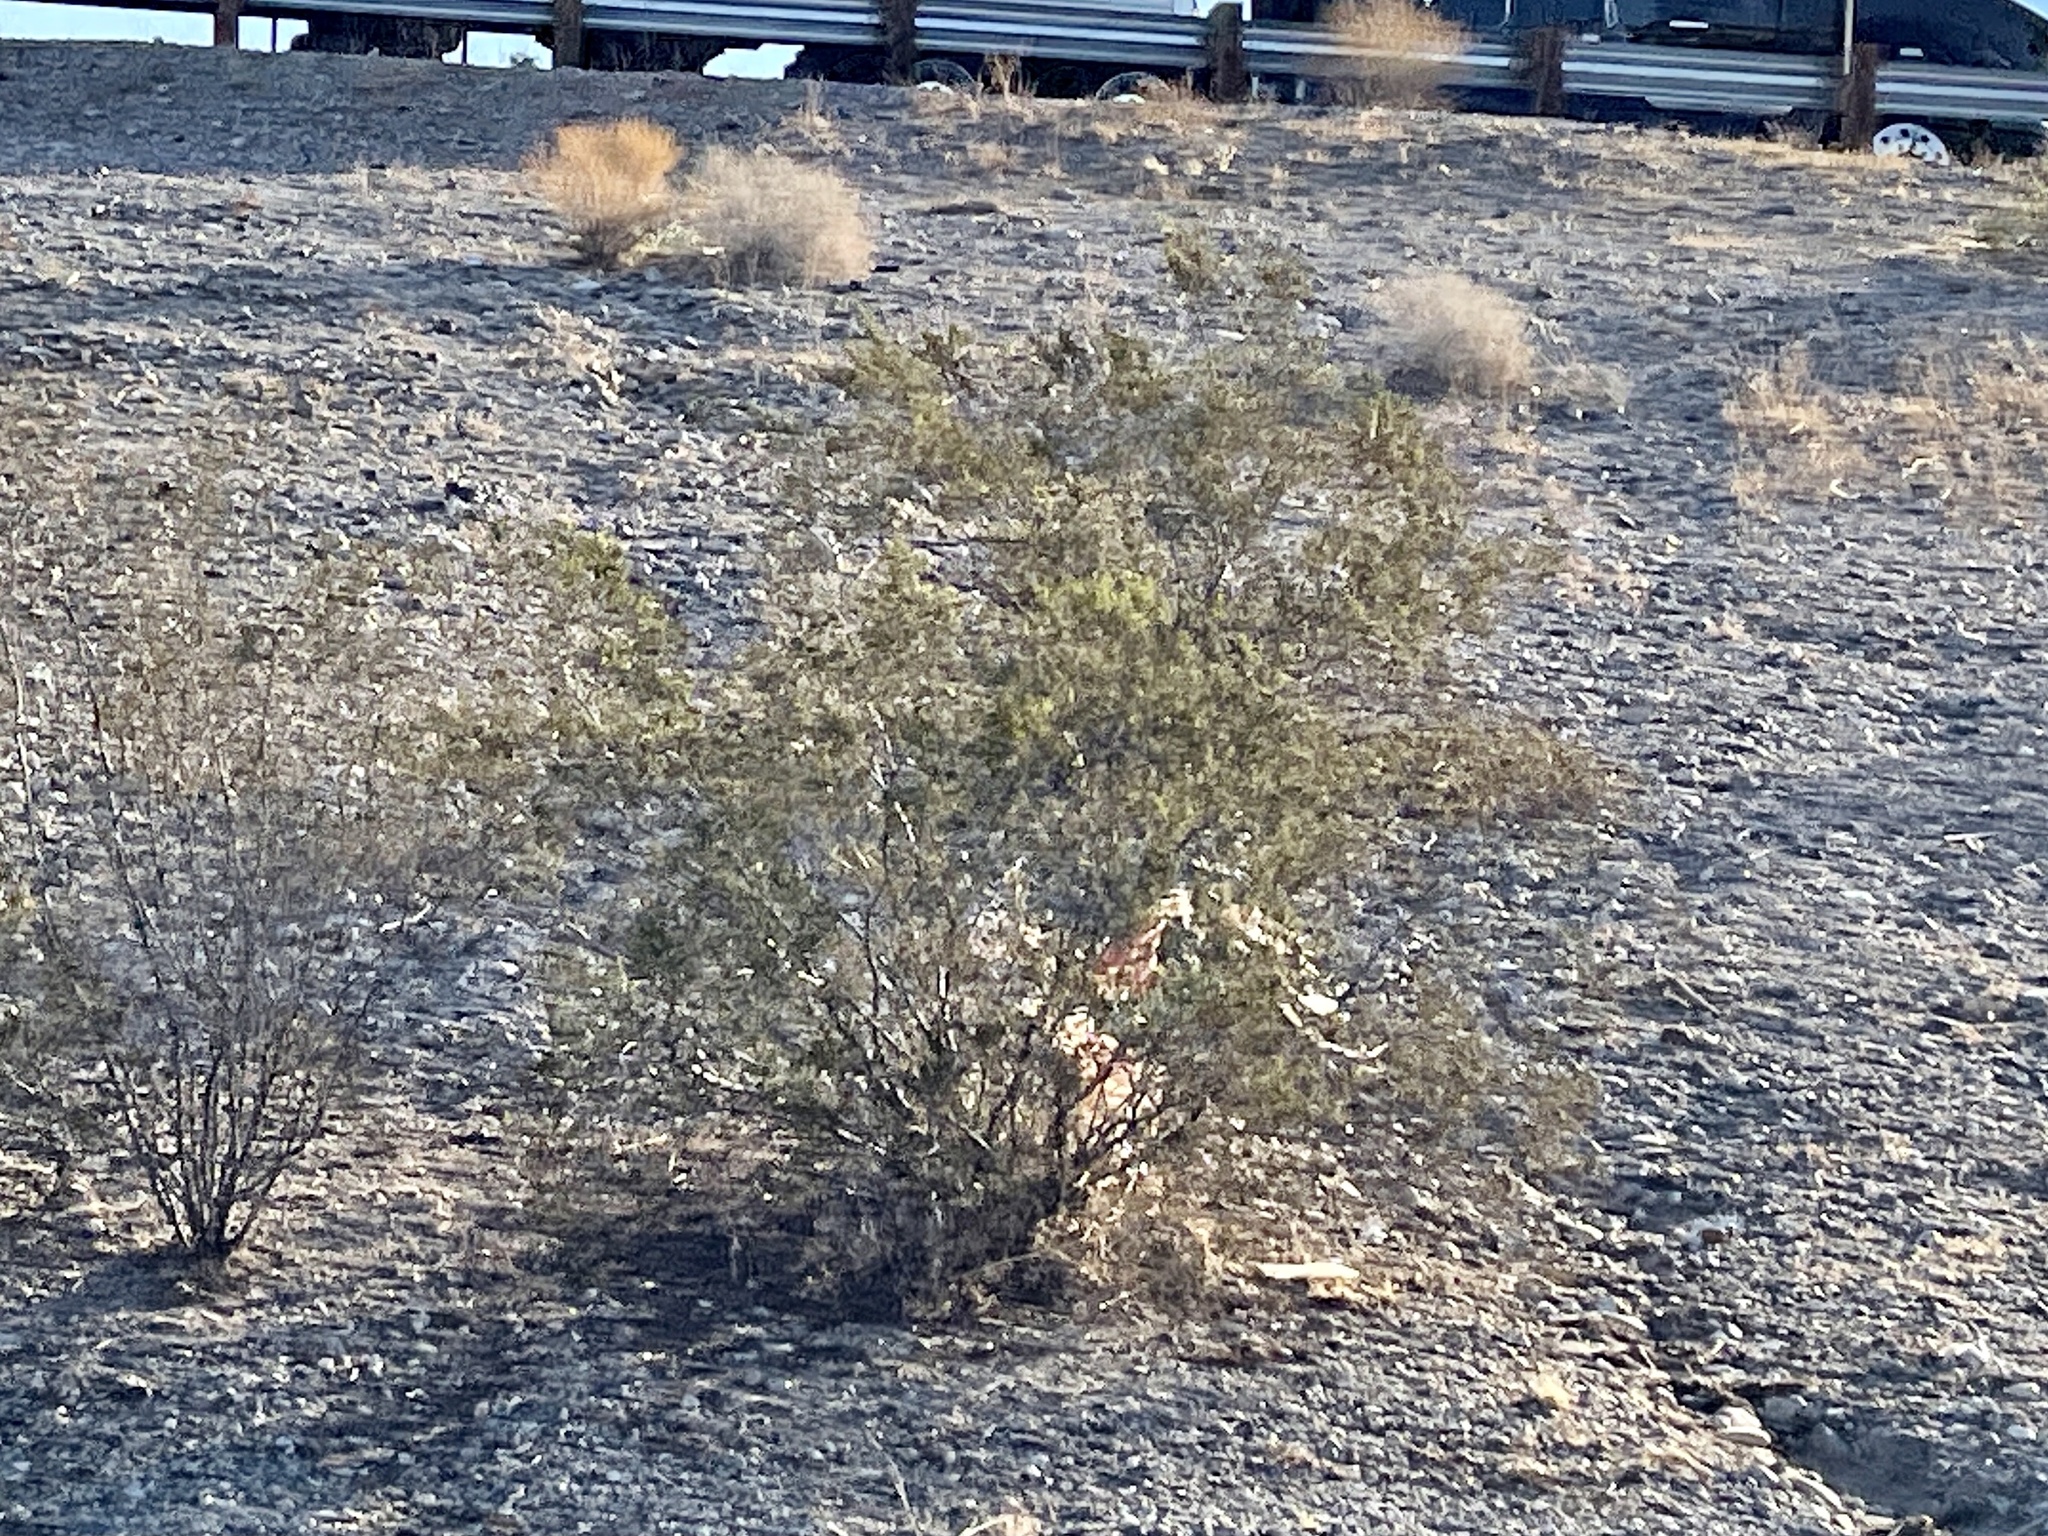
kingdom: Plantae
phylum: Tracheophyta
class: Magnoliopsida
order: Zygophyllales
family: Zygophyllaceae
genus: Larrea
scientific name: Larrea tridentata
